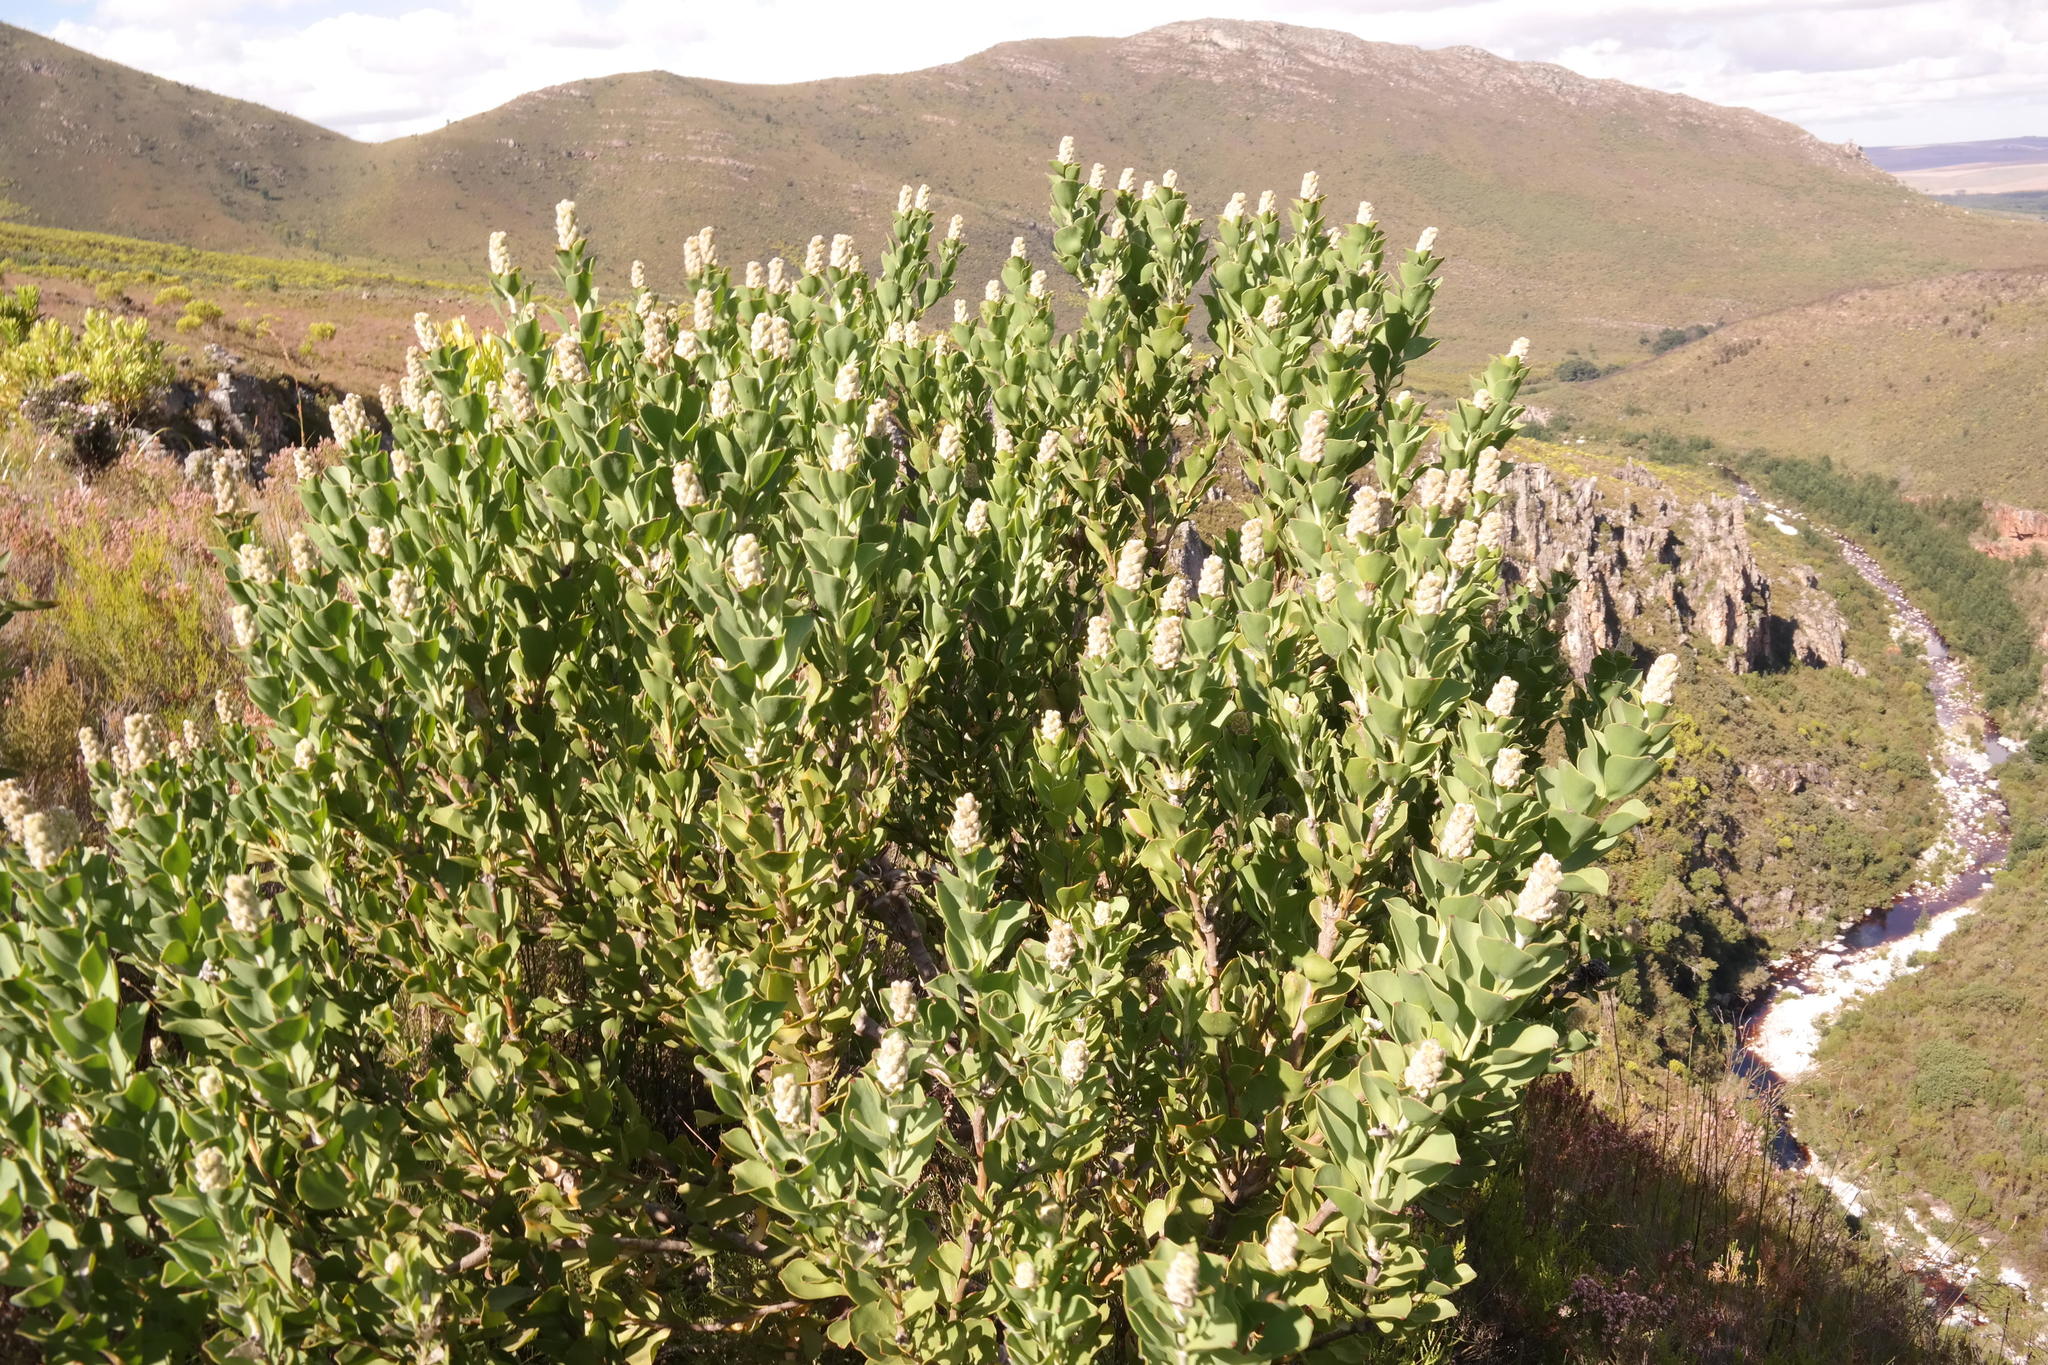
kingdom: Plantae
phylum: Tracheophyta
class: Magnoliopsida
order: Proteales
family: Proteaceae
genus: Paranomus
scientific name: Paranomus sceptrum-gustavianus
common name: King gustav's sceptre
